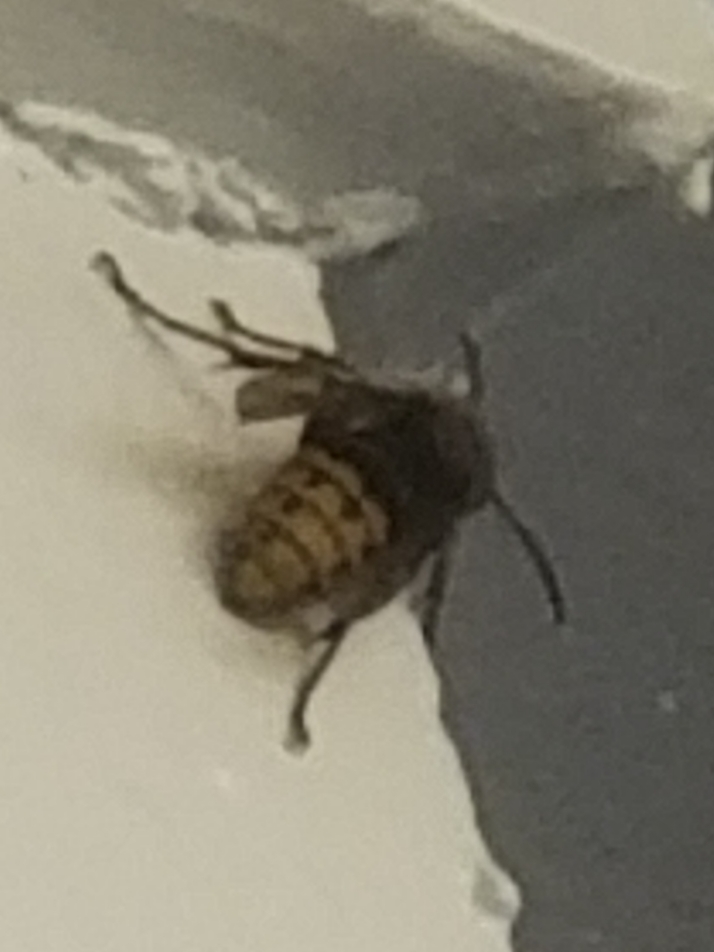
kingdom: Animalia
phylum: Arthropoda
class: Insecta
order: Hymenoptera
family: Vespidae
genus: Vespa
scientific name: Vespa crabro
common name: Hornet
